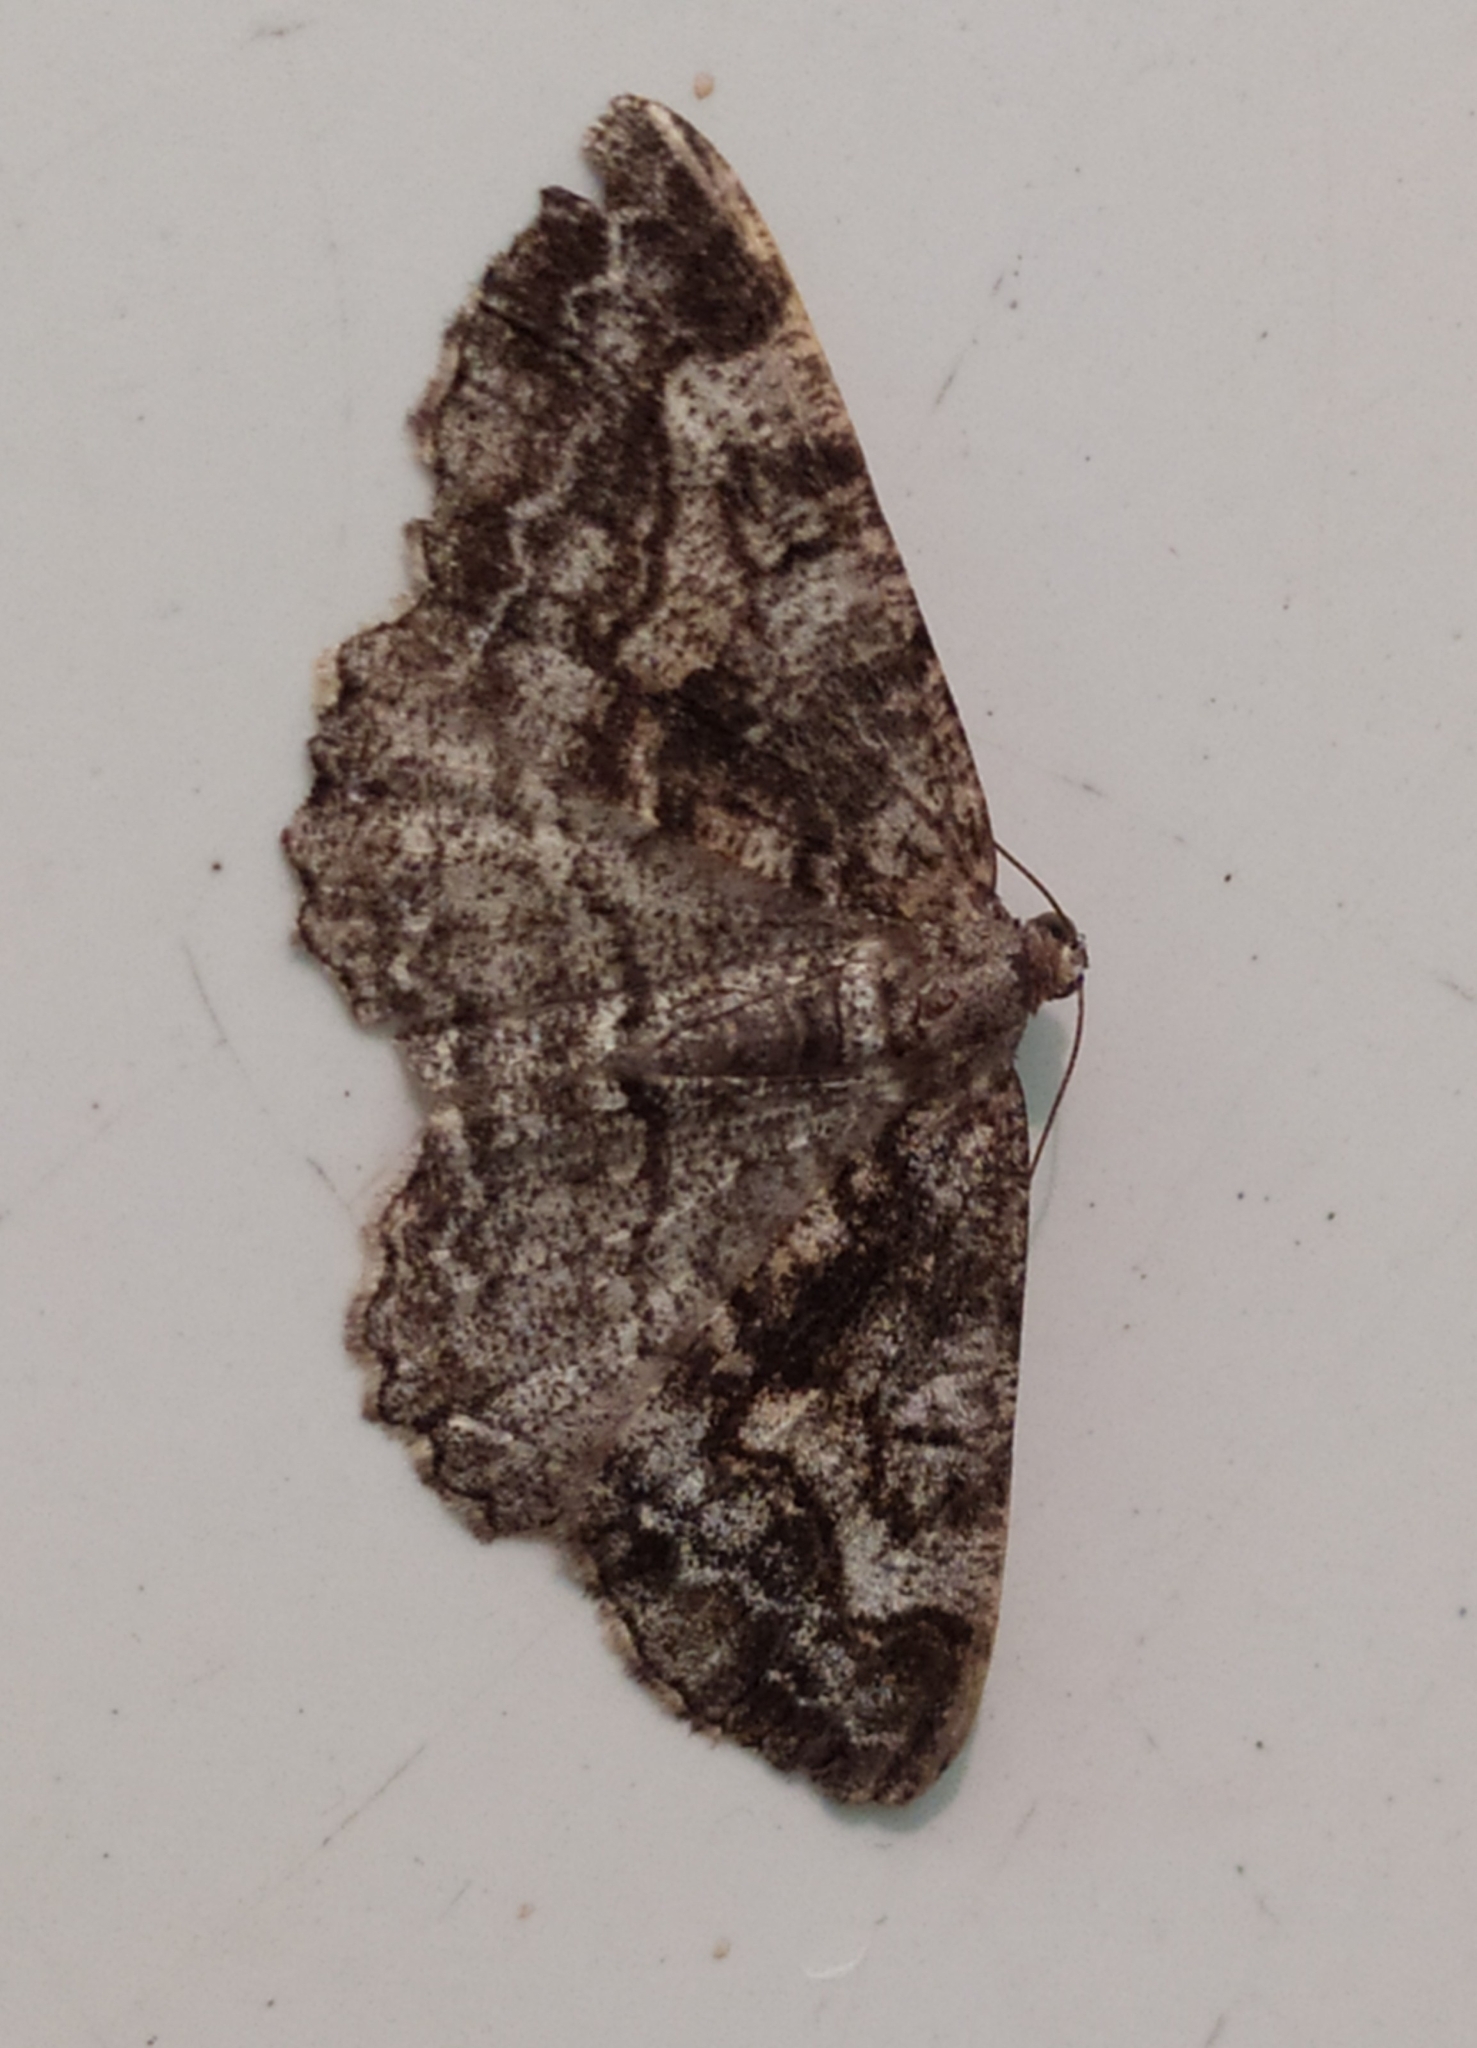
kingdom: Animalia
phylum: Arthropoda
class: Insecta
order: Lepidoptera
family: Geometridae
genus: Alcis
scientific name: Alcis repandata
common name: Mottled beauty
